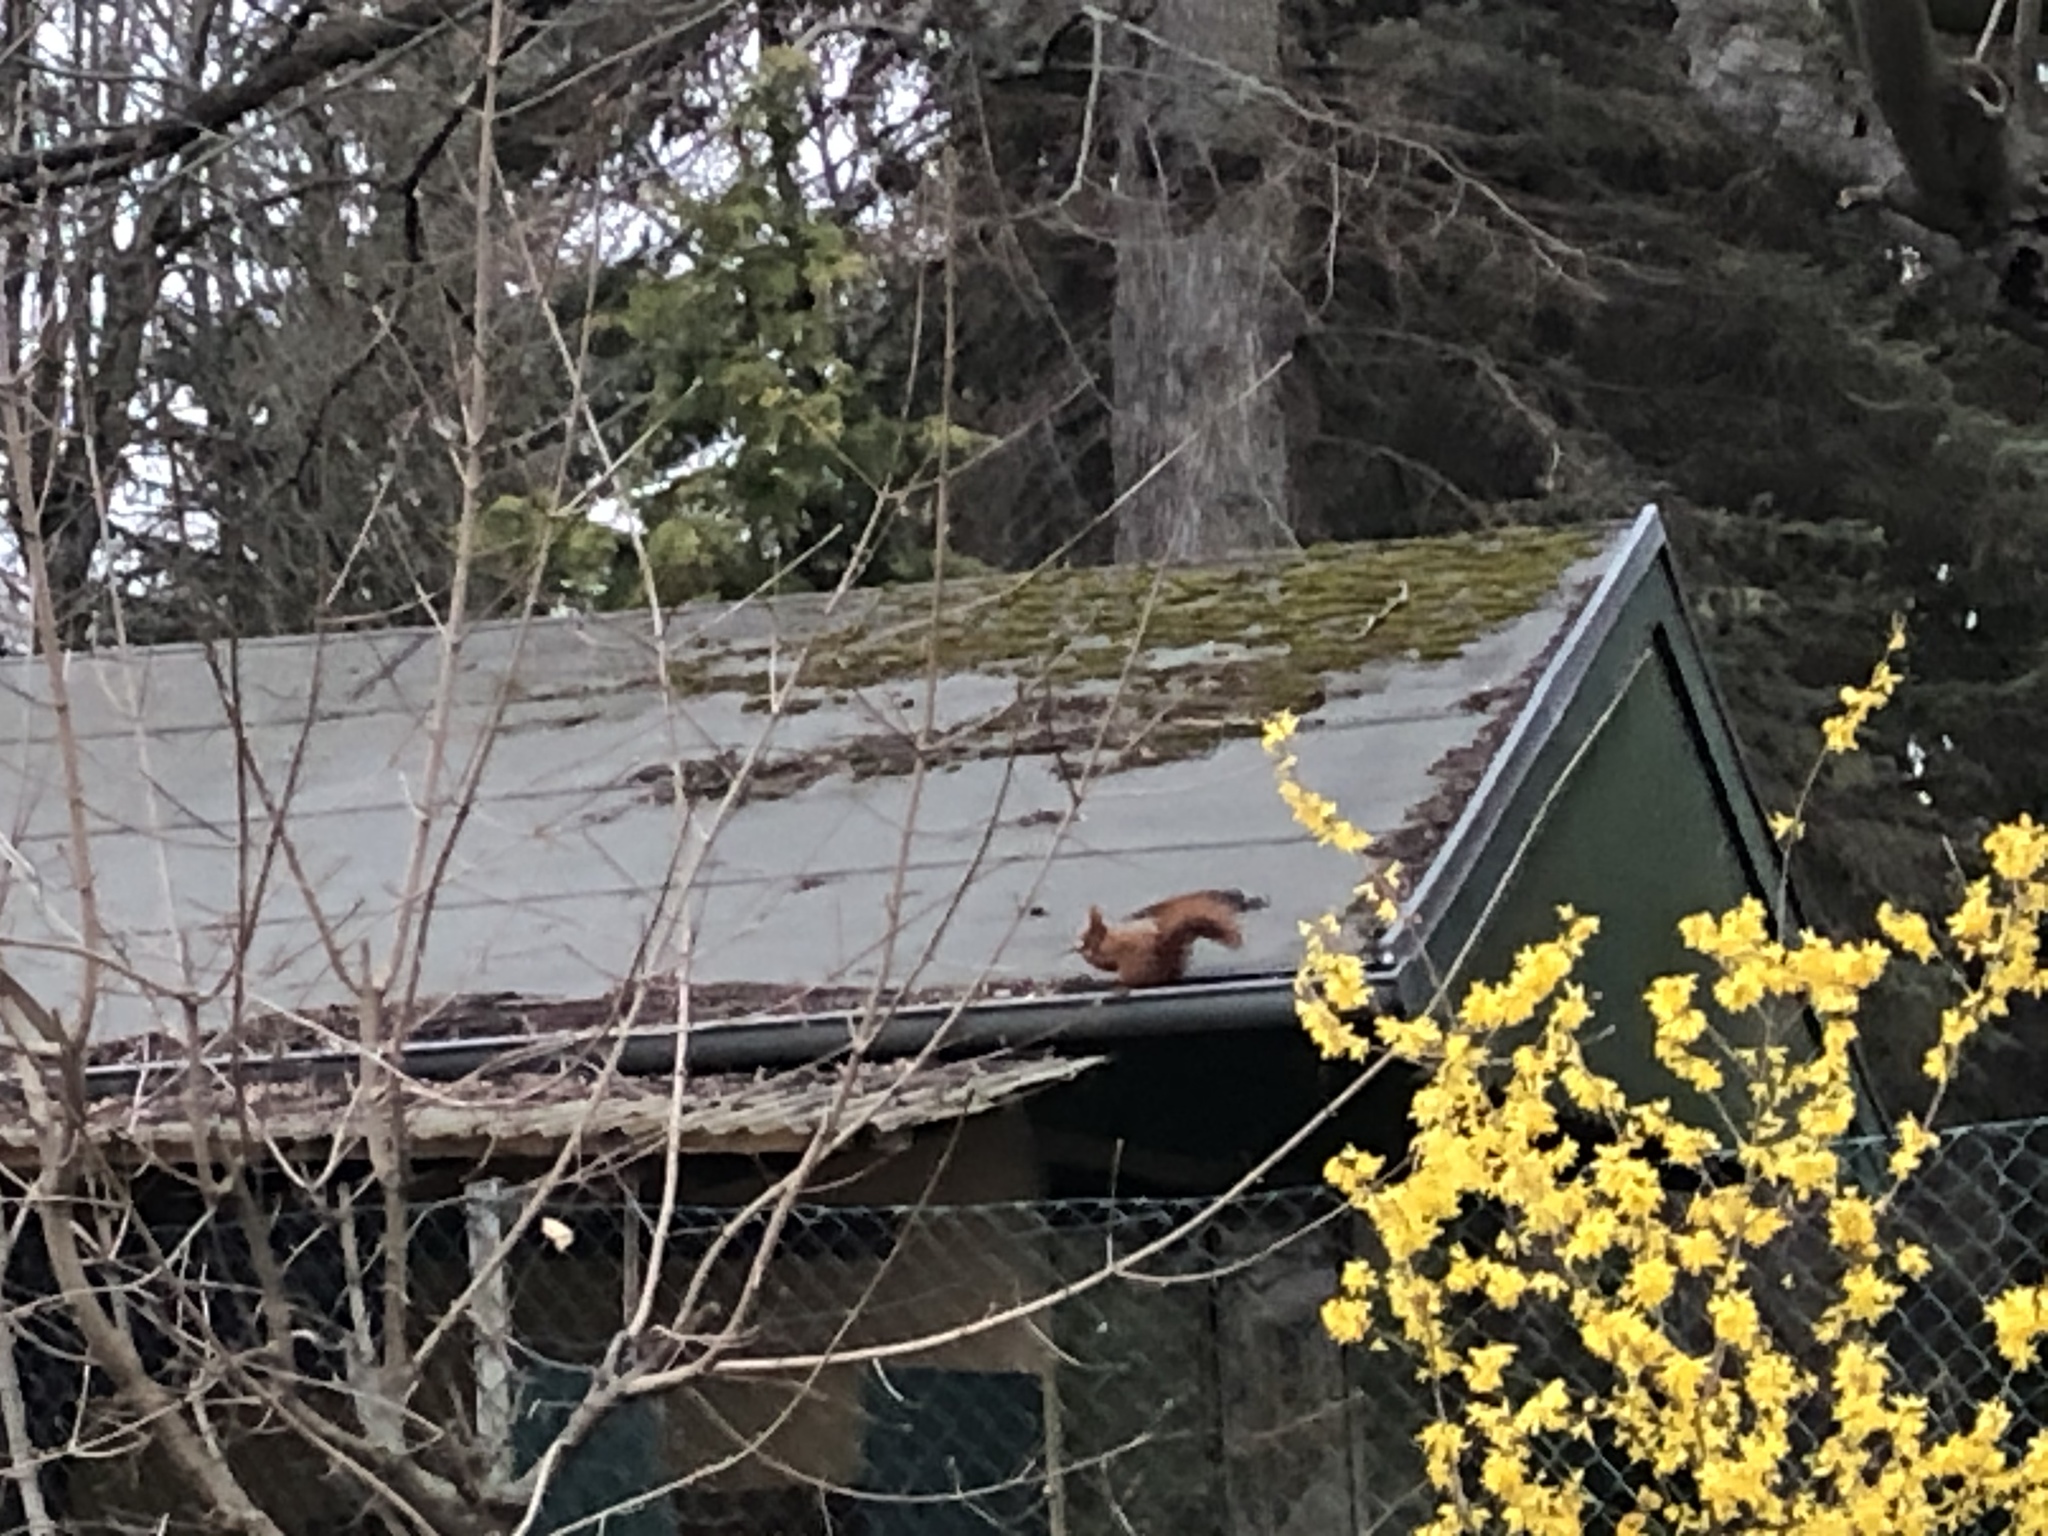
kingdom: Animalia
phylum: Chordata
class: Mammalia
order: Rodentia
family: Sciuridae
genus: Sciurus
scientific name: Sciurus vulgaris
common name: Eurasian red squirrel
